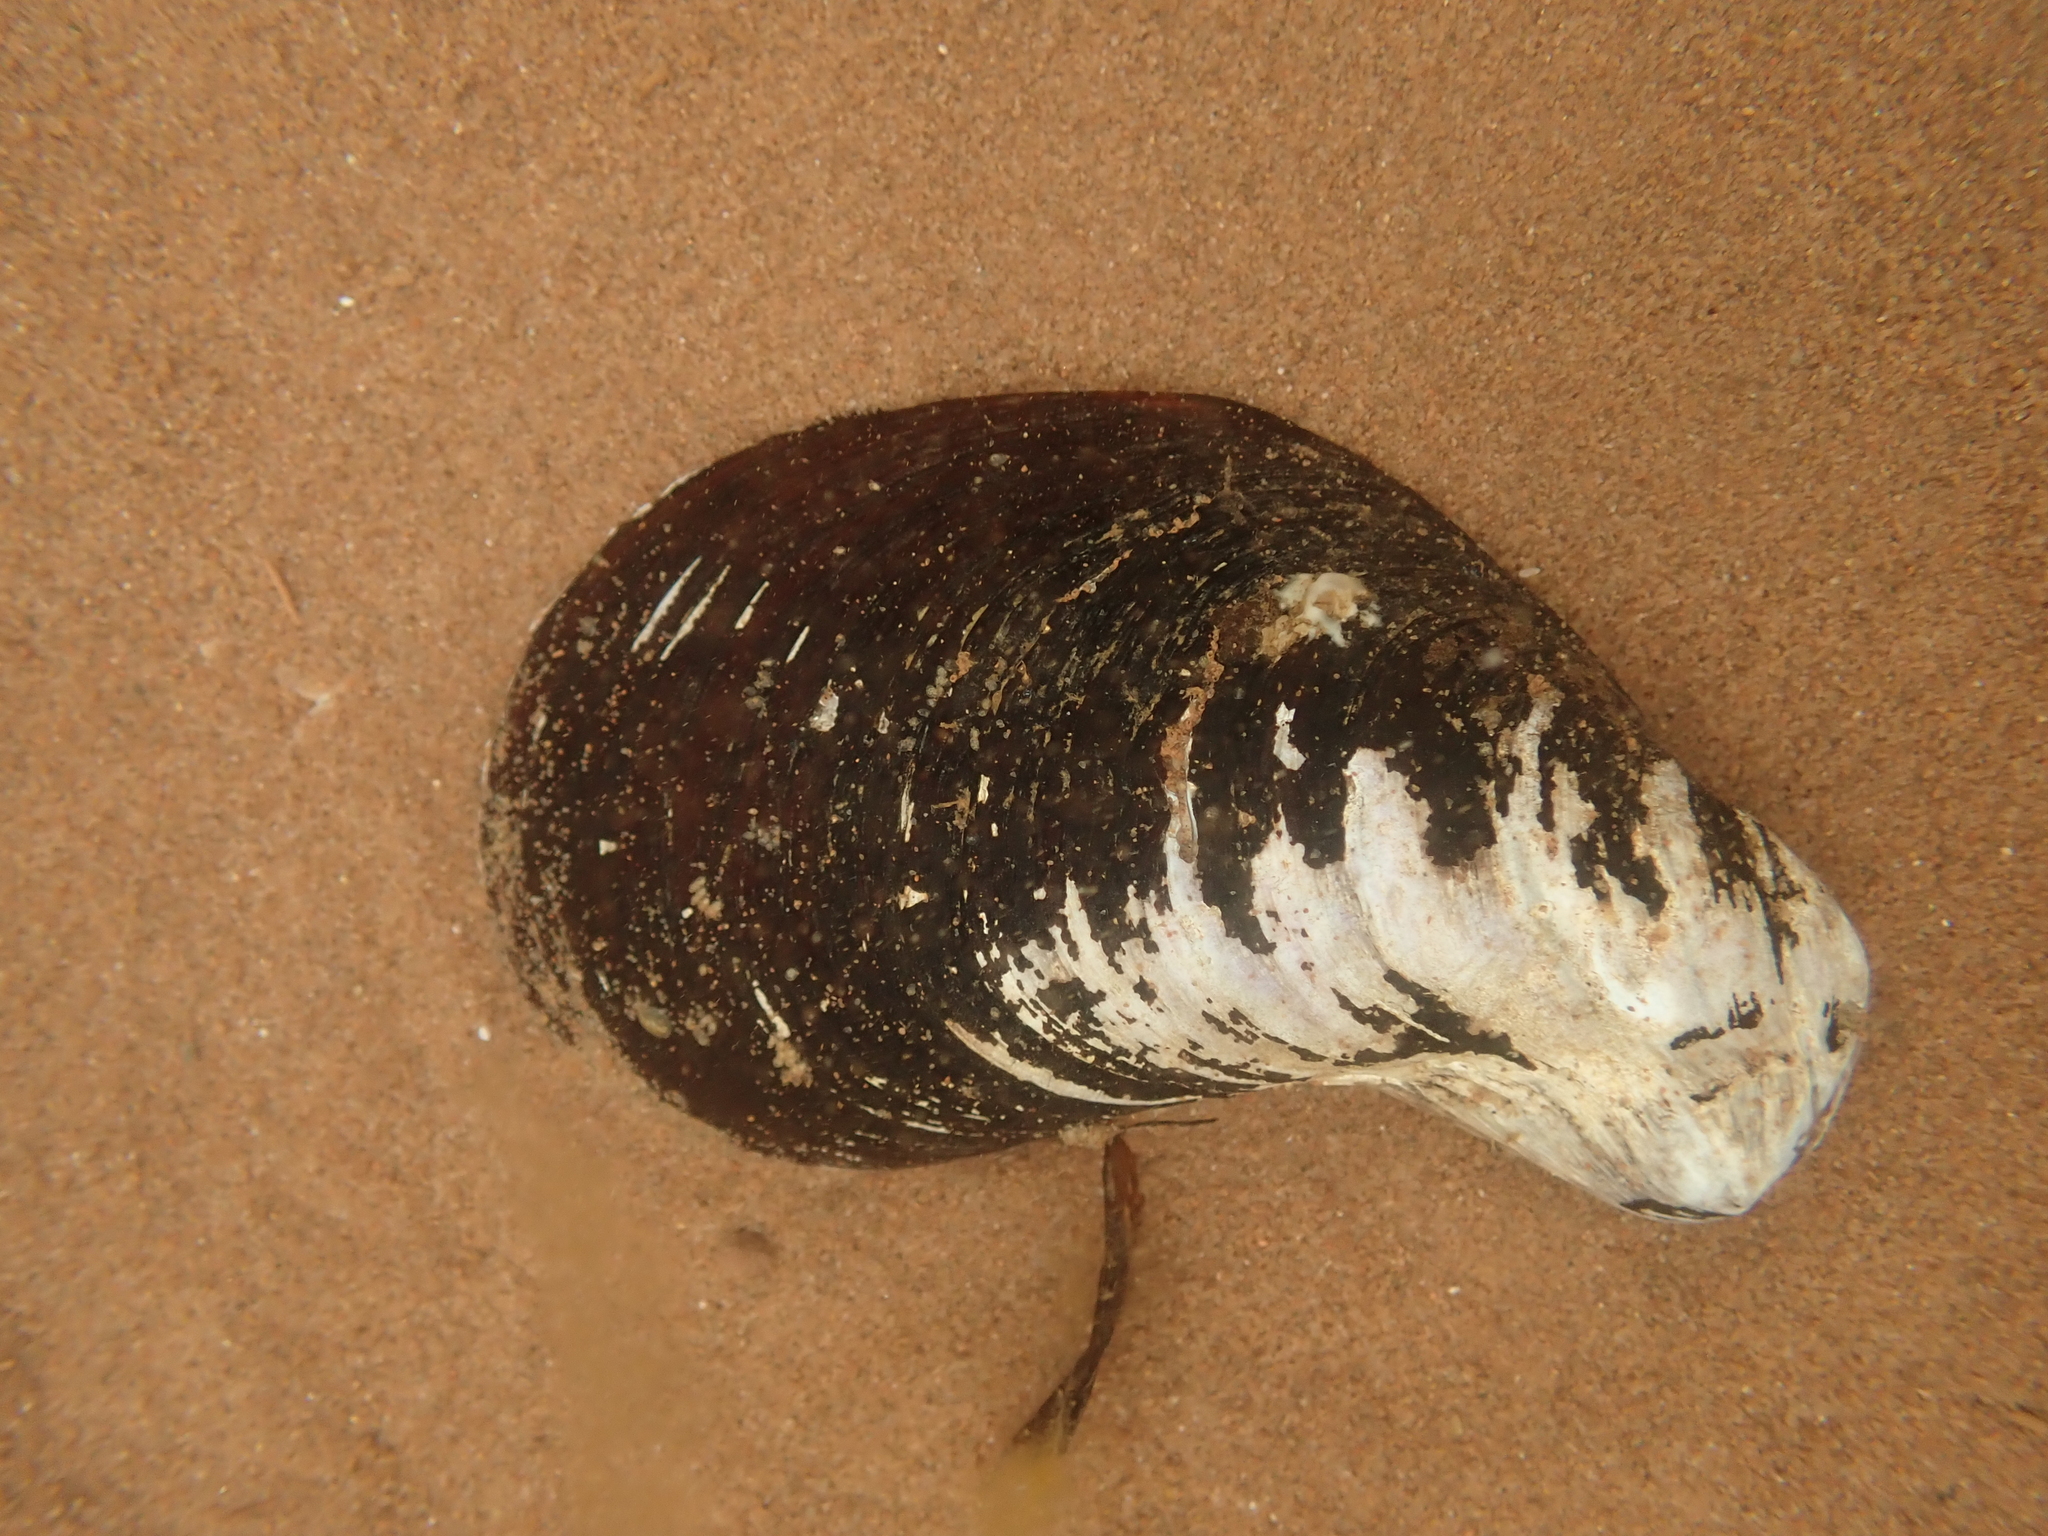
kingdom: Animalia
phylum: Mollusca
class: Bivalvia
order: Mytilida
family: Mytilidae
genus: Modiolus
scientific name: Modiolus modiolus
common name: Horse-mussel
